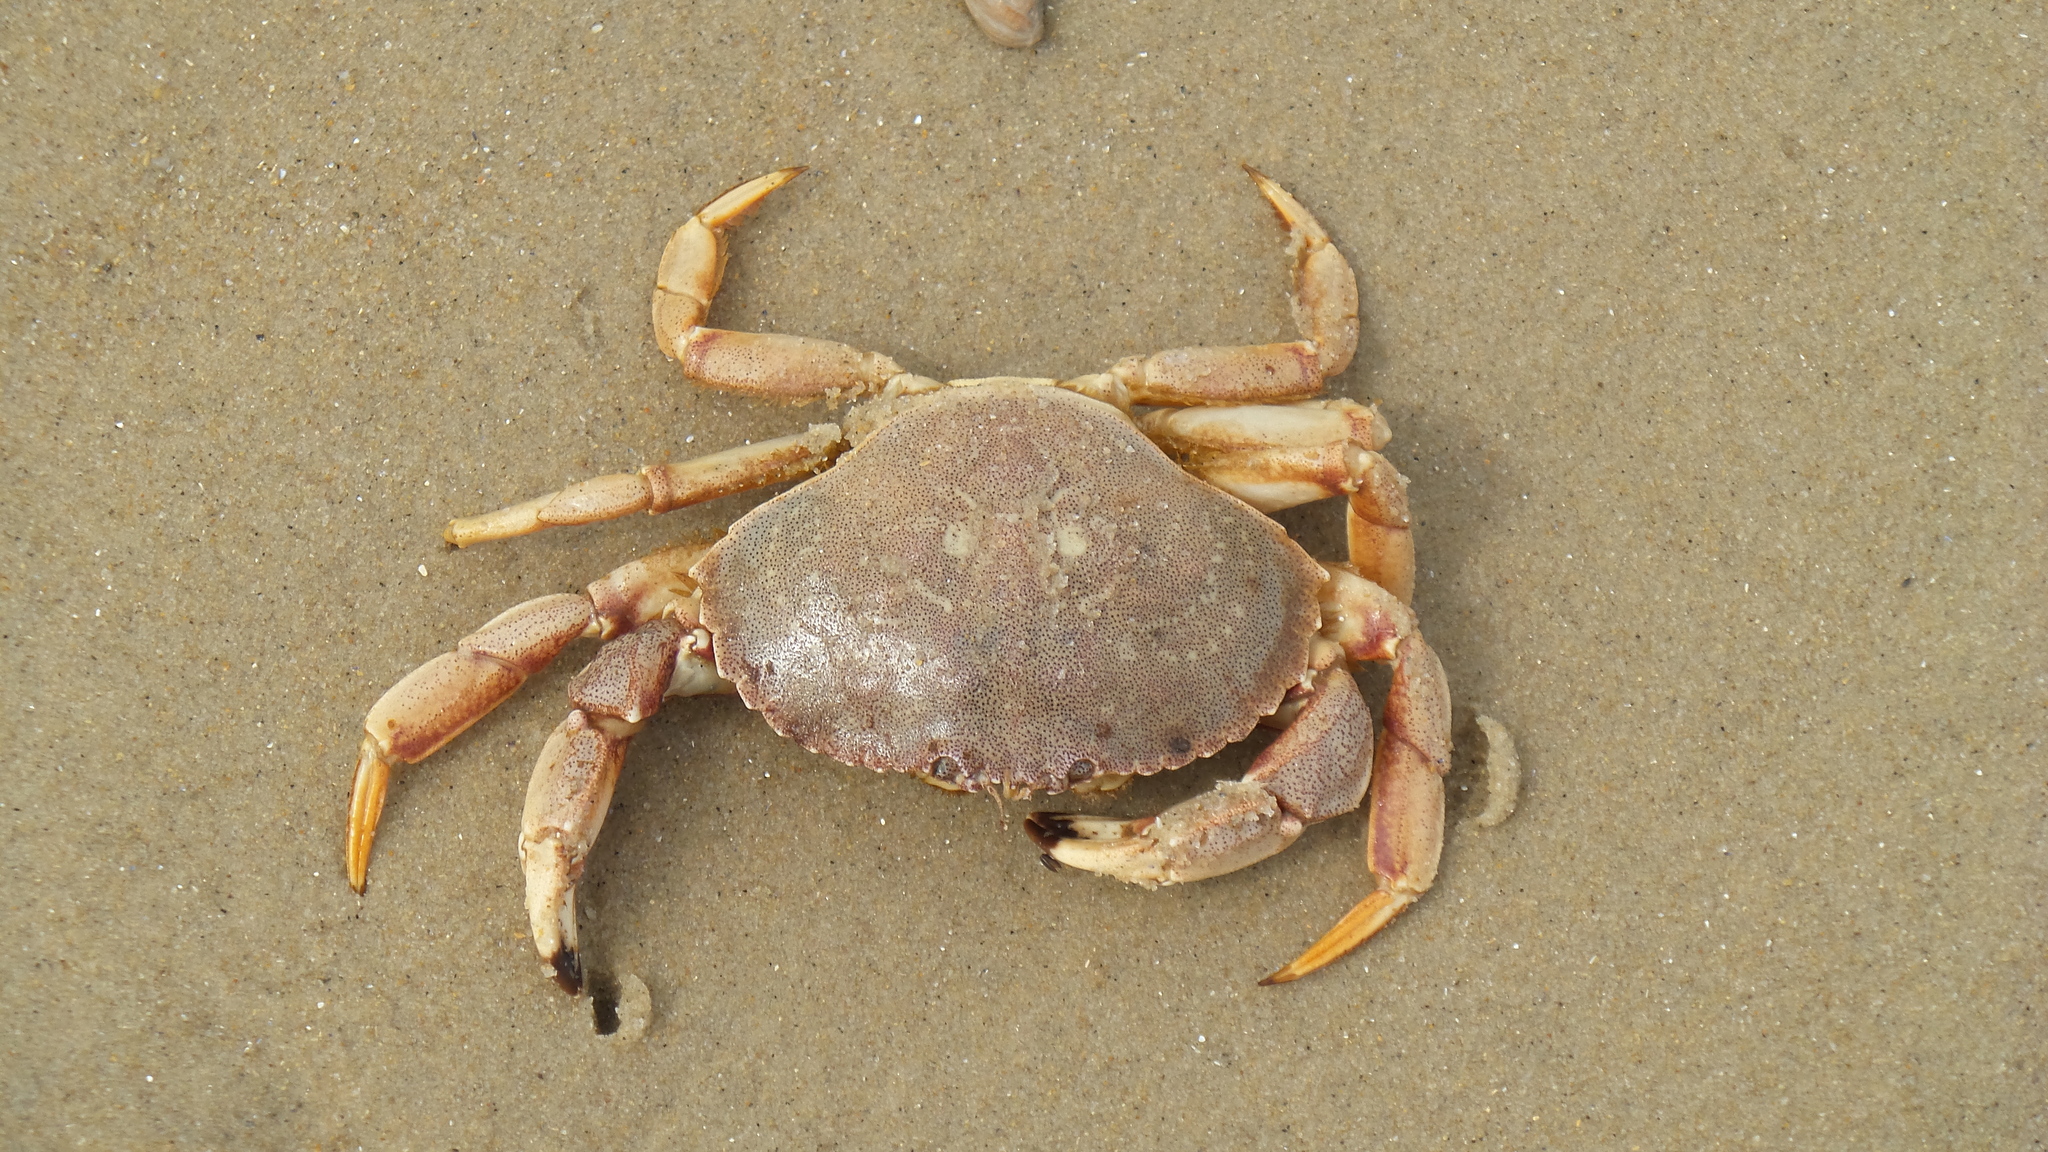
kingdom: Animalia
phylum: Arthropoda
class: Malacostraca
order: Decapoda
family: Cancridae
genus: Cancer
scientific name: Cancer irroratus
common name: Atlantic rock crab
